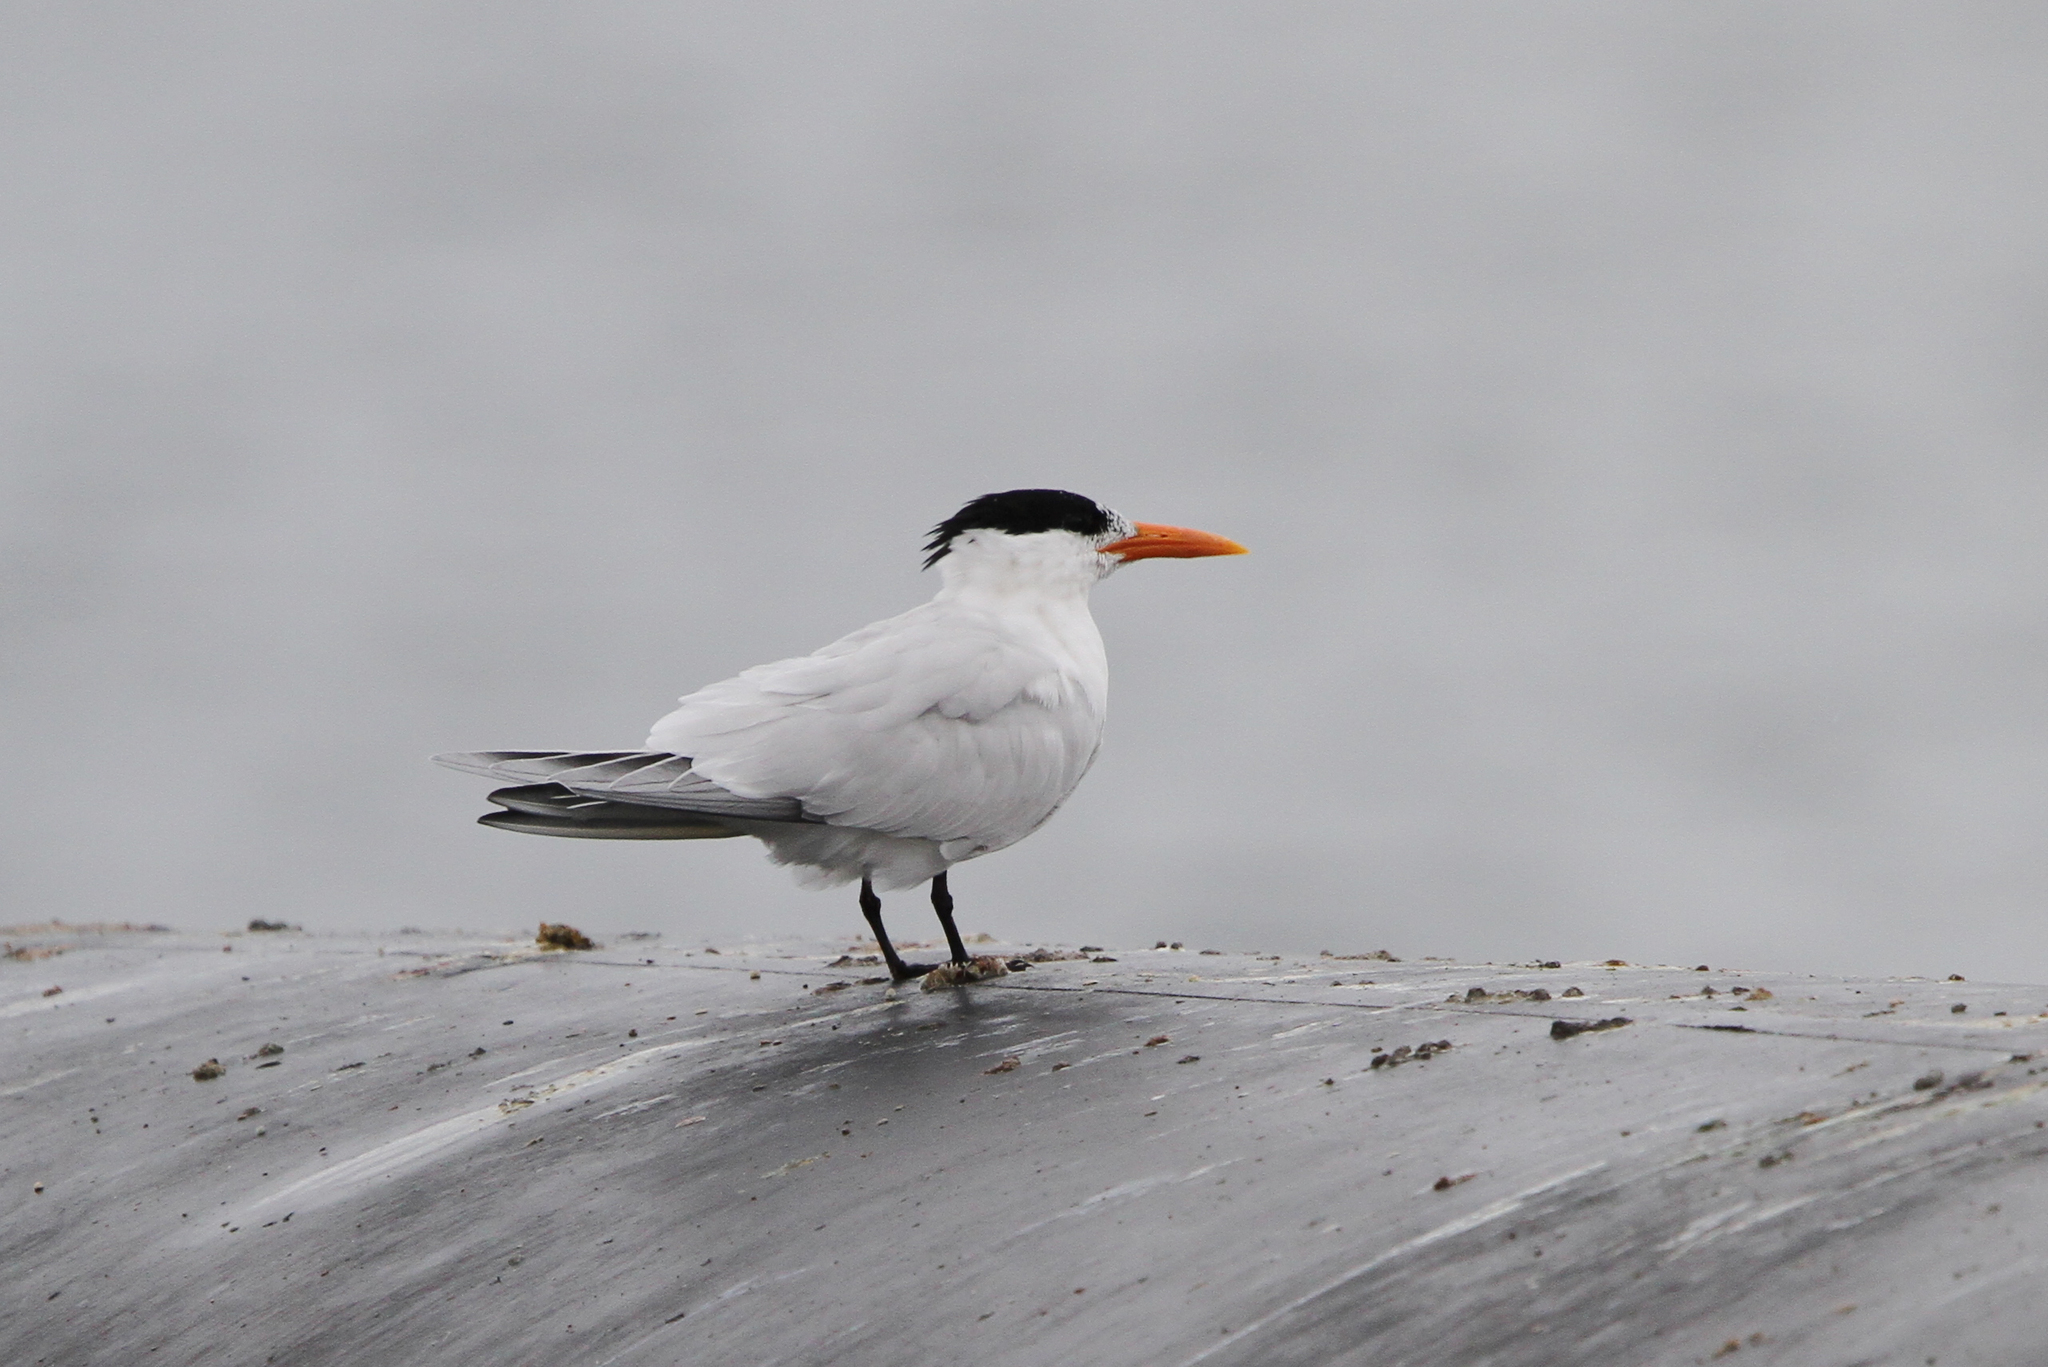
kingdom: Animalia
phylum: Chordata
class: Aves
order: Charadriiformes
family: Laridae
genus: Thalasseus
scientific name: Thalasseus maximus
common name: Royal tern
